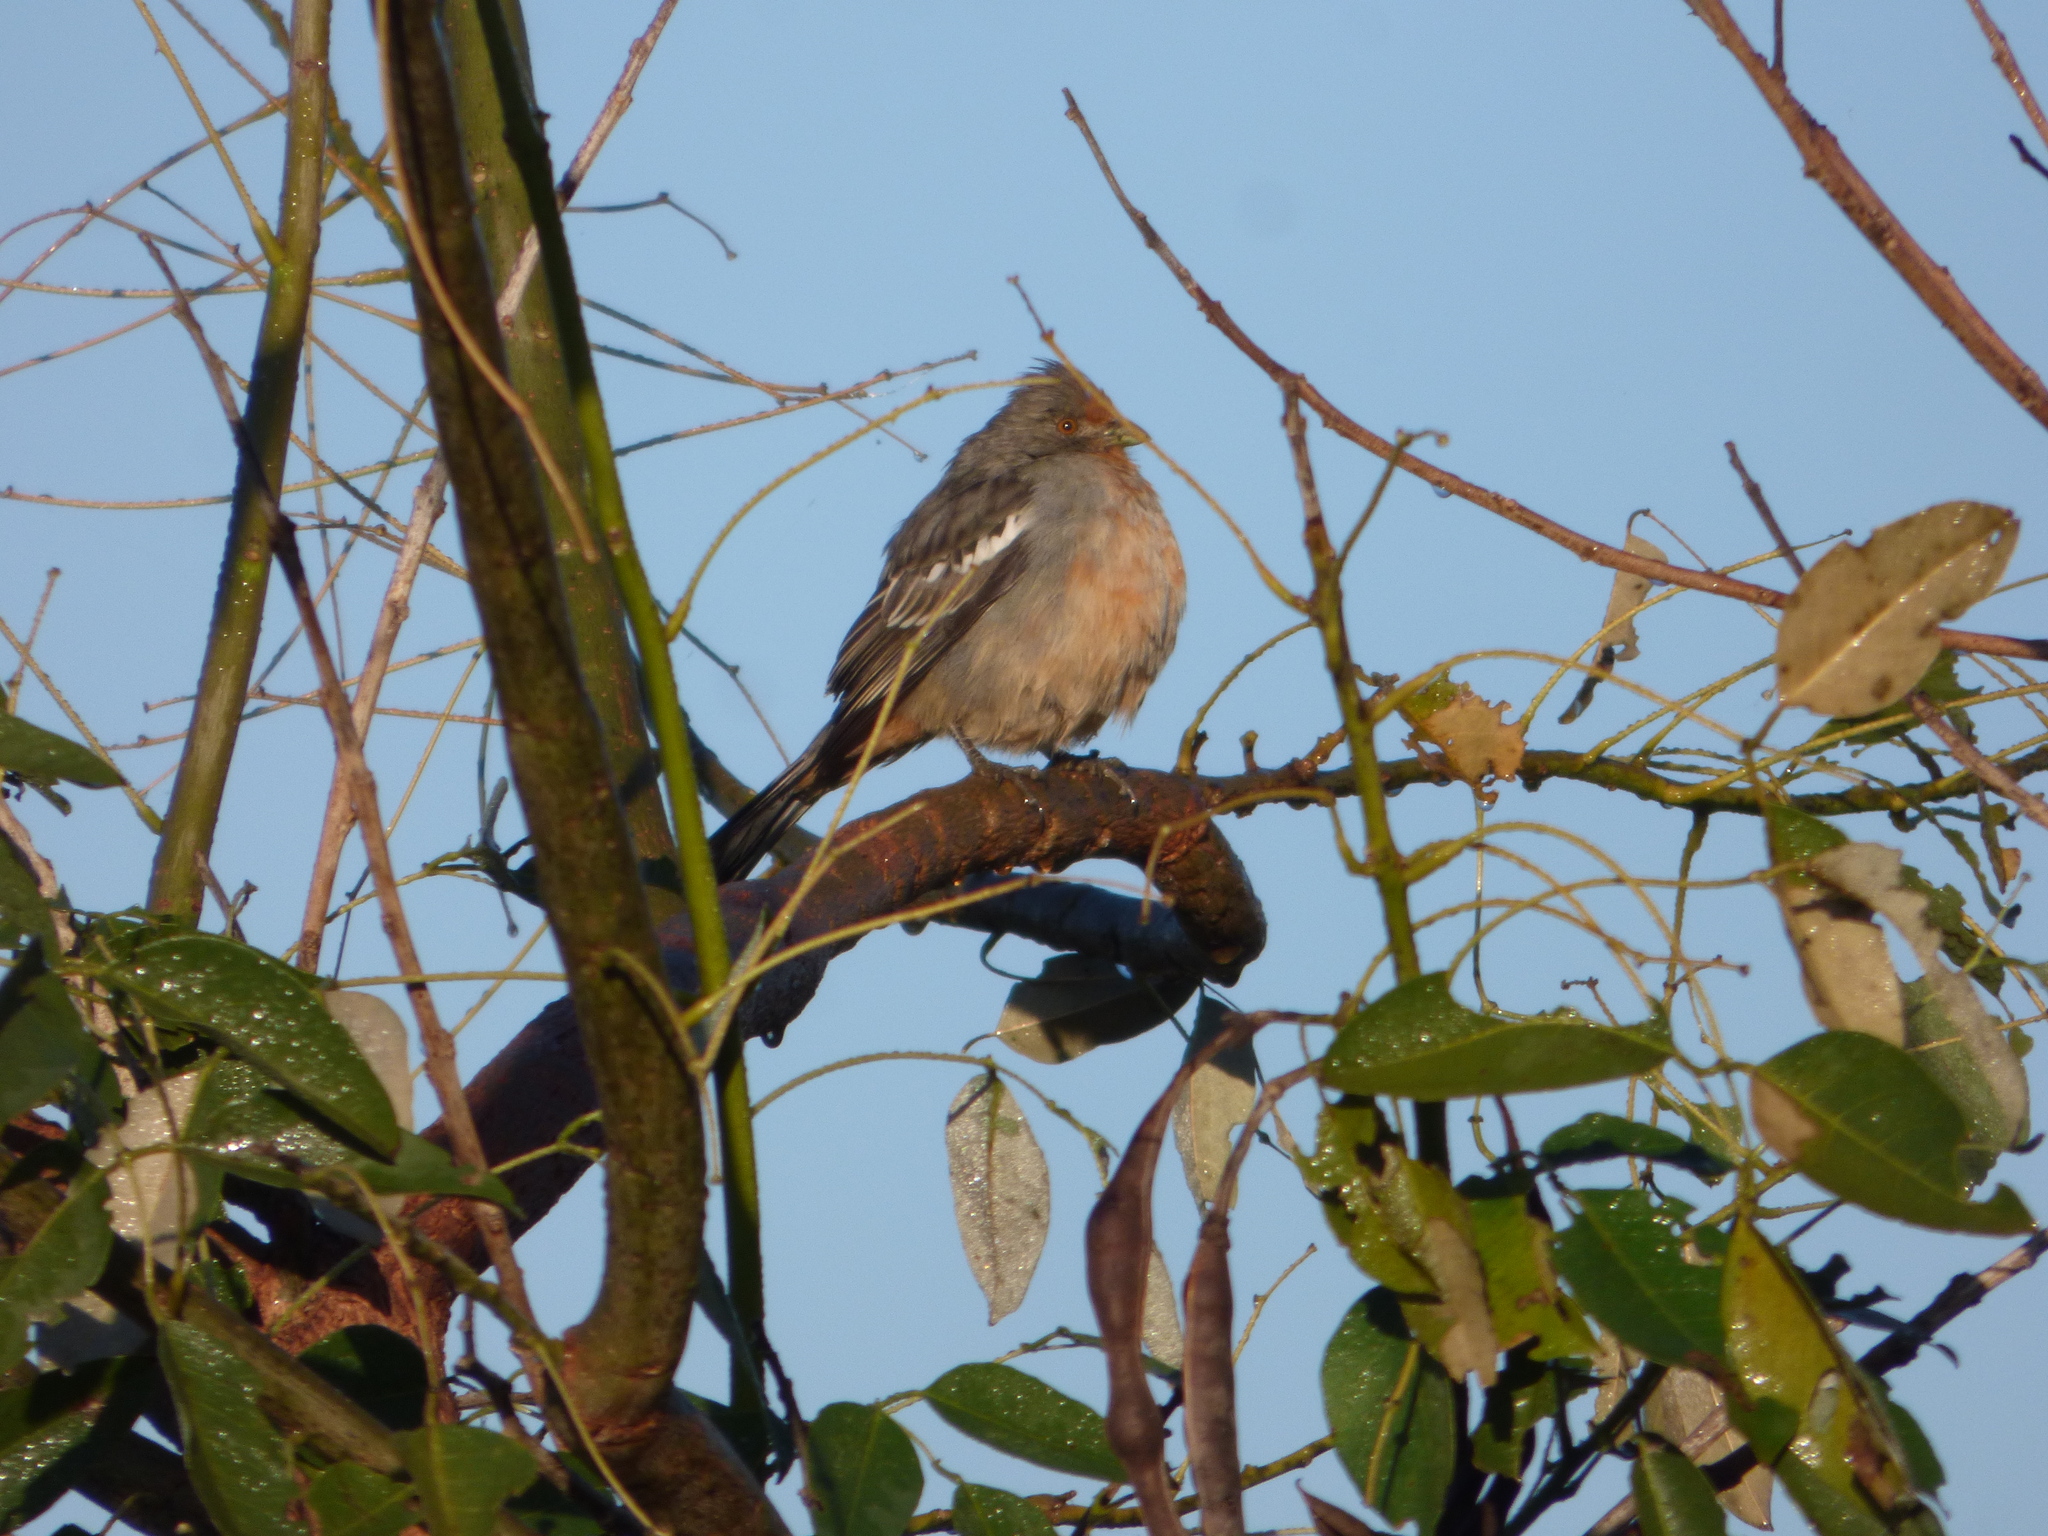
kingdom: Animalia
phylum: Chordata
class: Aves
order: Passeriformes
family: Cotingidae
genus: Phytotoma
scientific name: Phytotoma rutila
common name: White-tipped plantcutter
